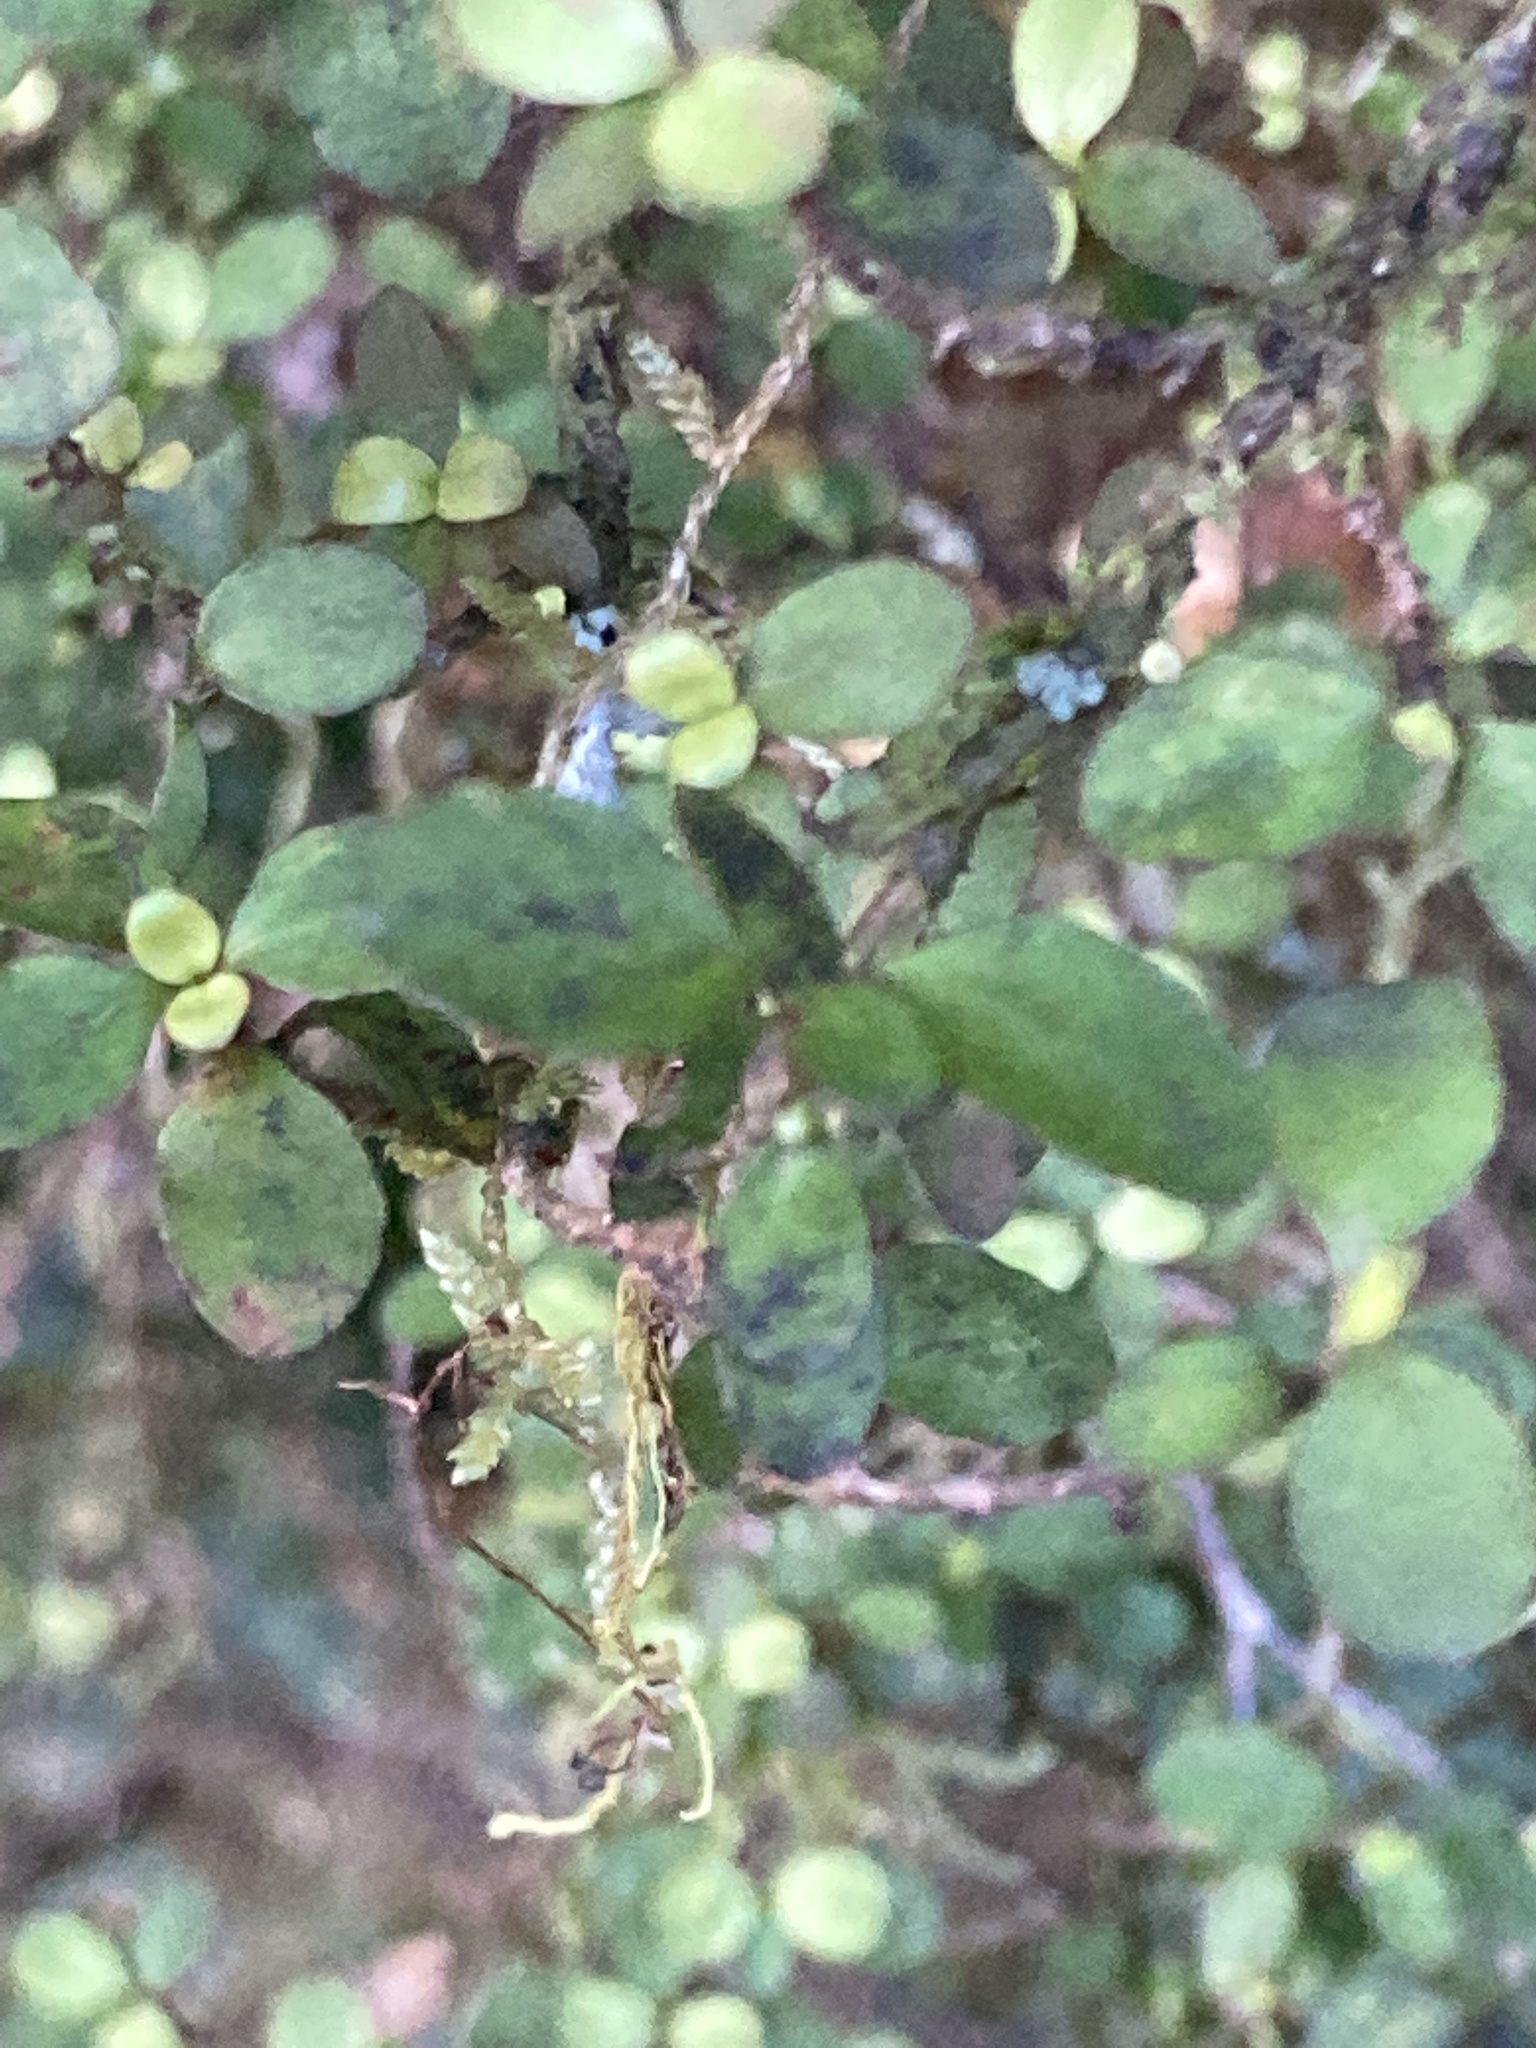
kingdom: Plantae
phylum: Tracheophyta
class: Magnoliopsida
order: Gentianales
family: Rubiaceae
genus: Coprosma
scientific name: Coprosma colensoi
